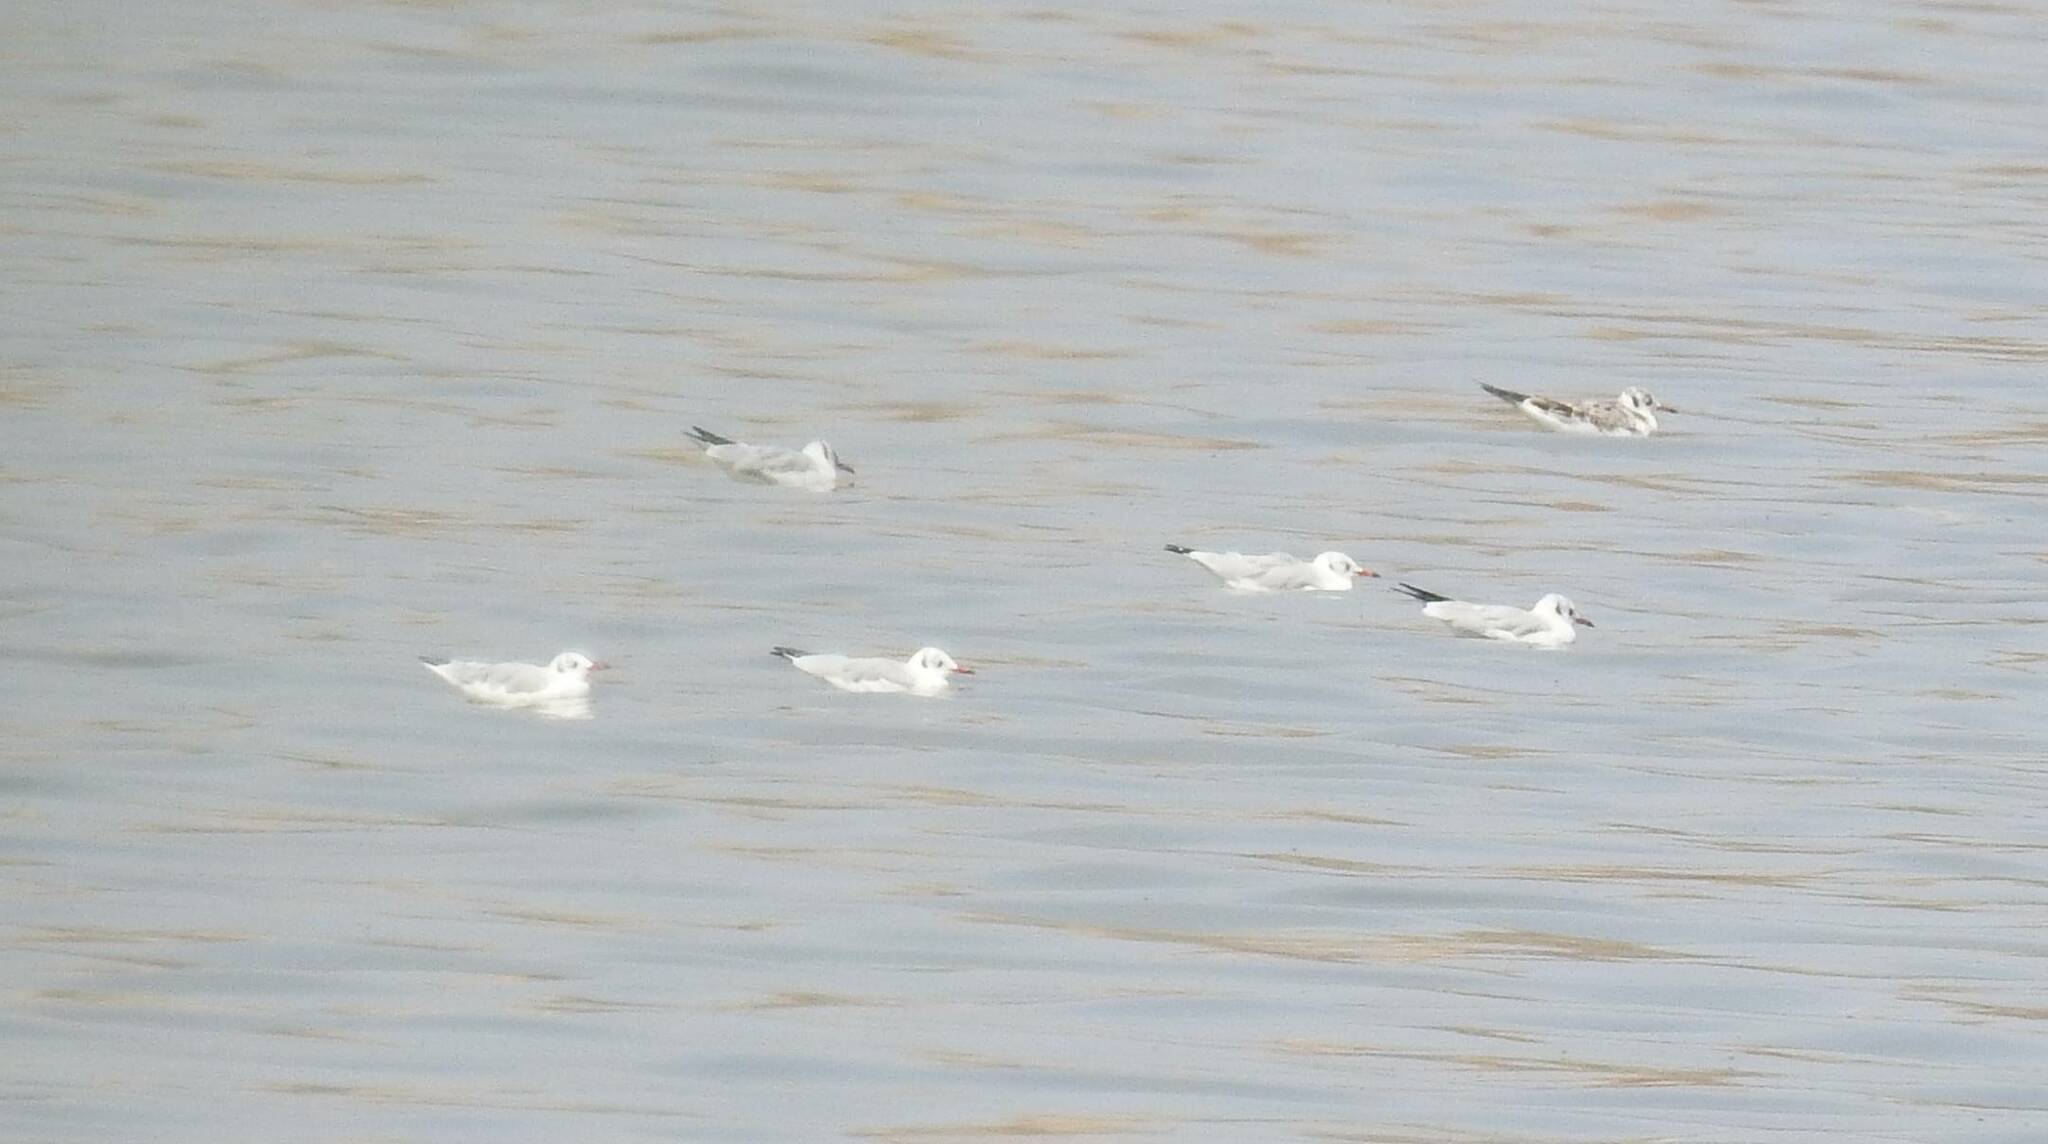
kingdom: Animalia
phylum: Chordata
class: Aves
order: Charadriiformes
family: Laridae
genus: Chroicocephalus
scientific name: Chroicocephalus ridibundus
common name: Black-headed gull
